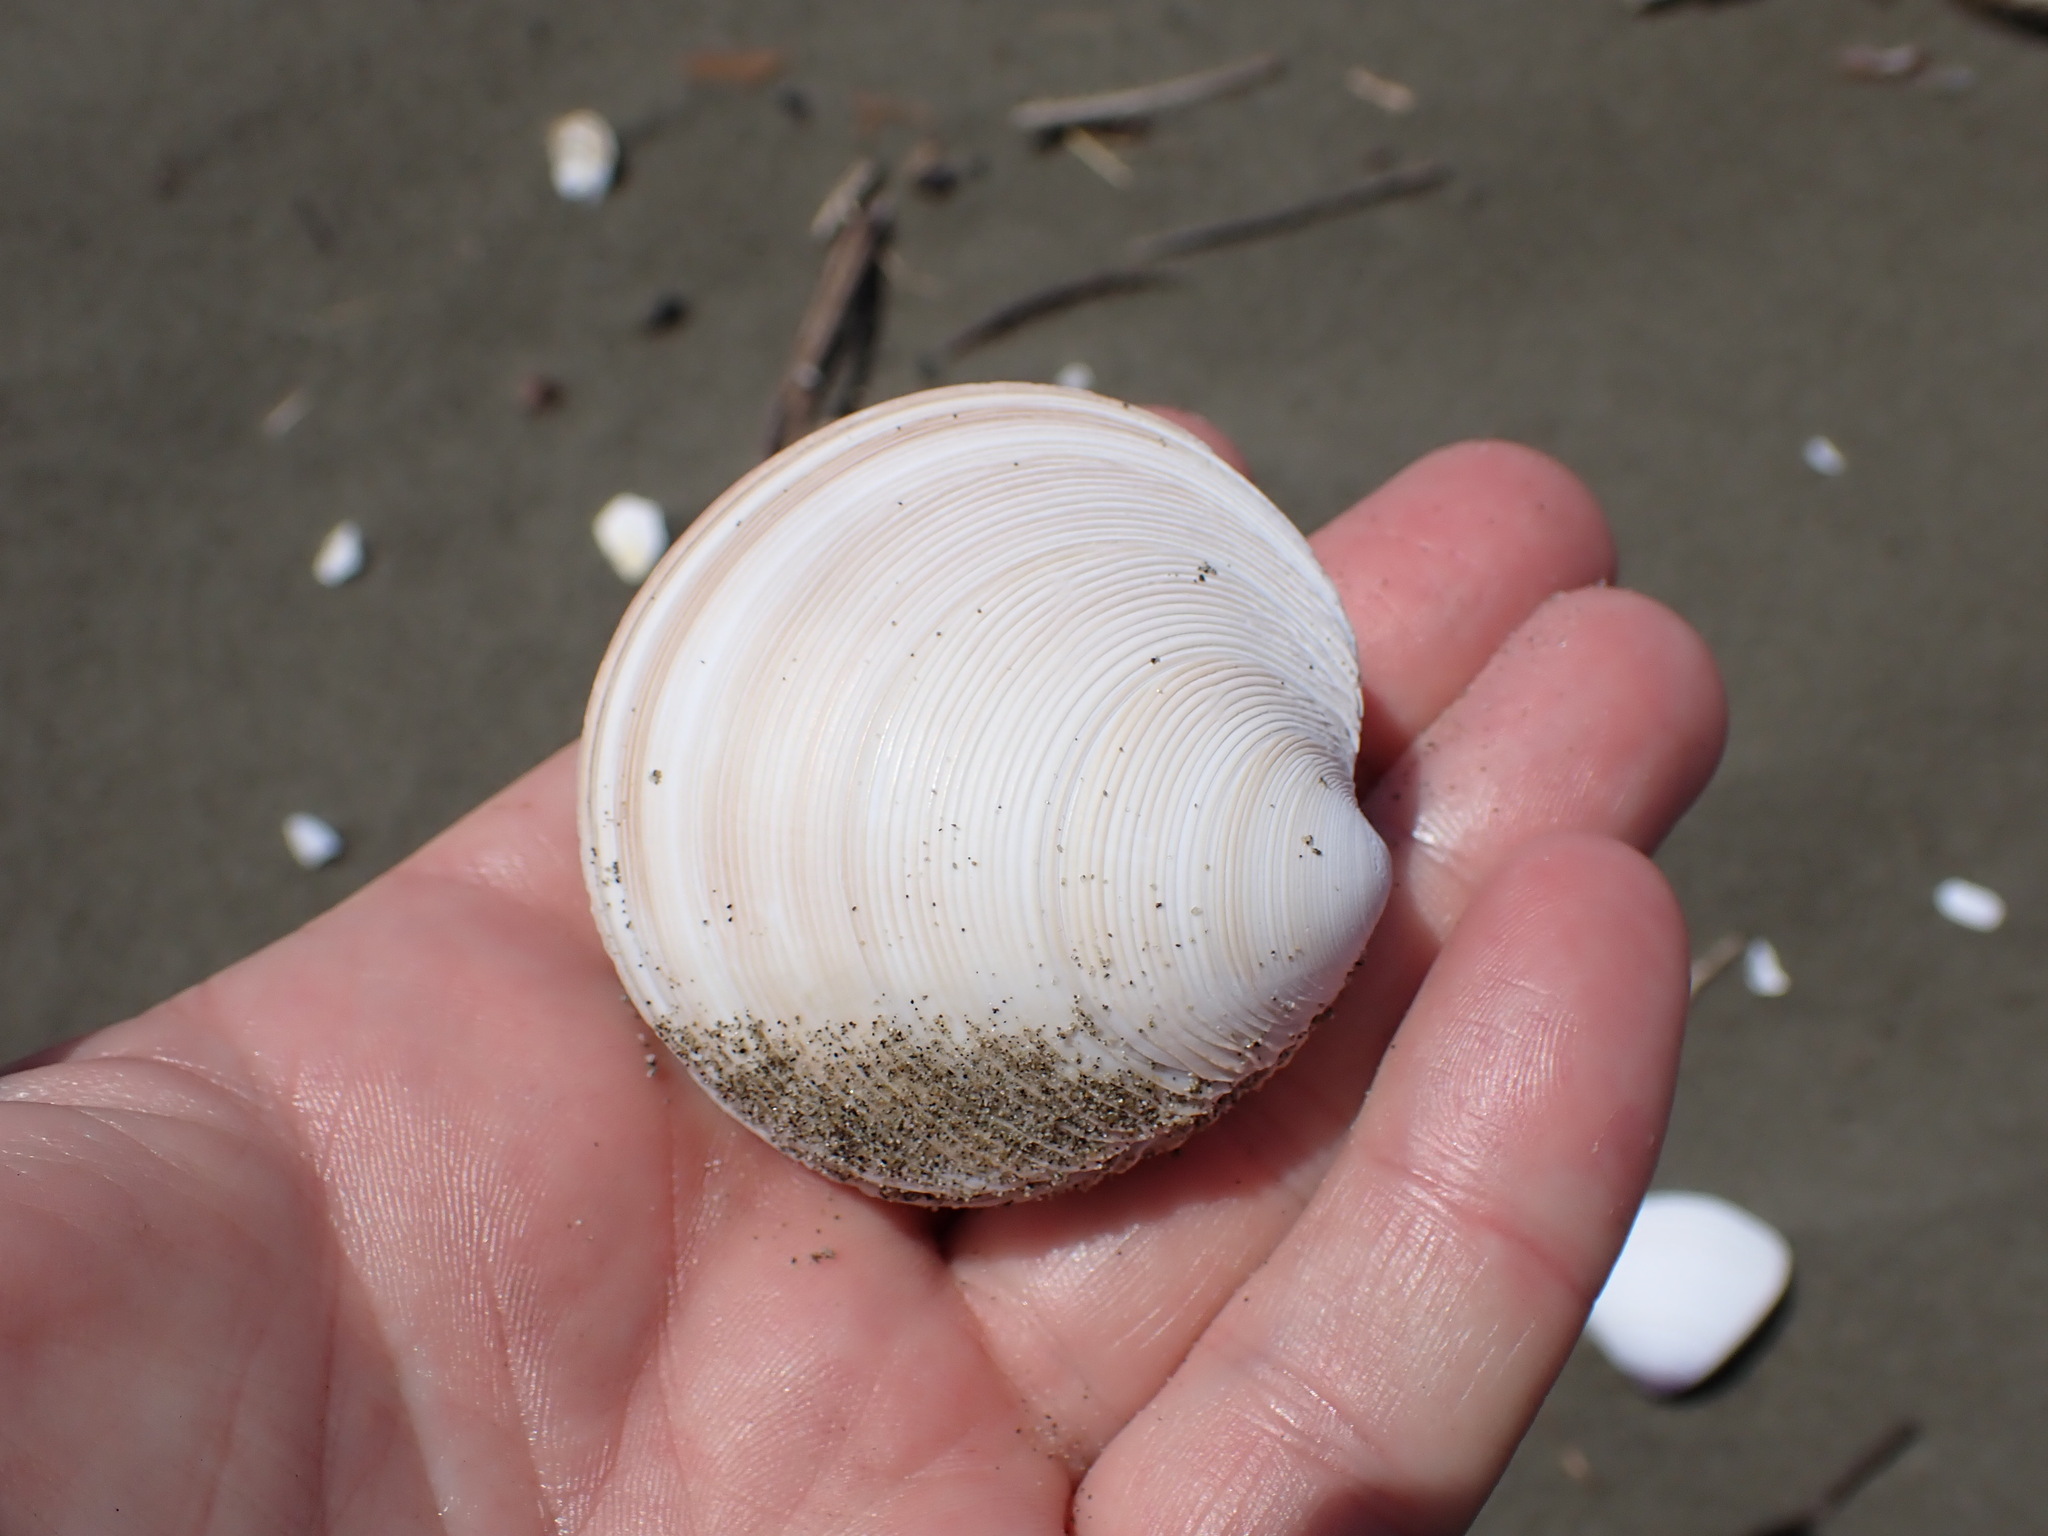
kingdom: Animalia
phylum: Mollusca
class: Bivalvia
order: Venerida
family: Veneridae
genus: Dosinia
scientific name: Dosinia anus
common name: Old-woman dosinia
